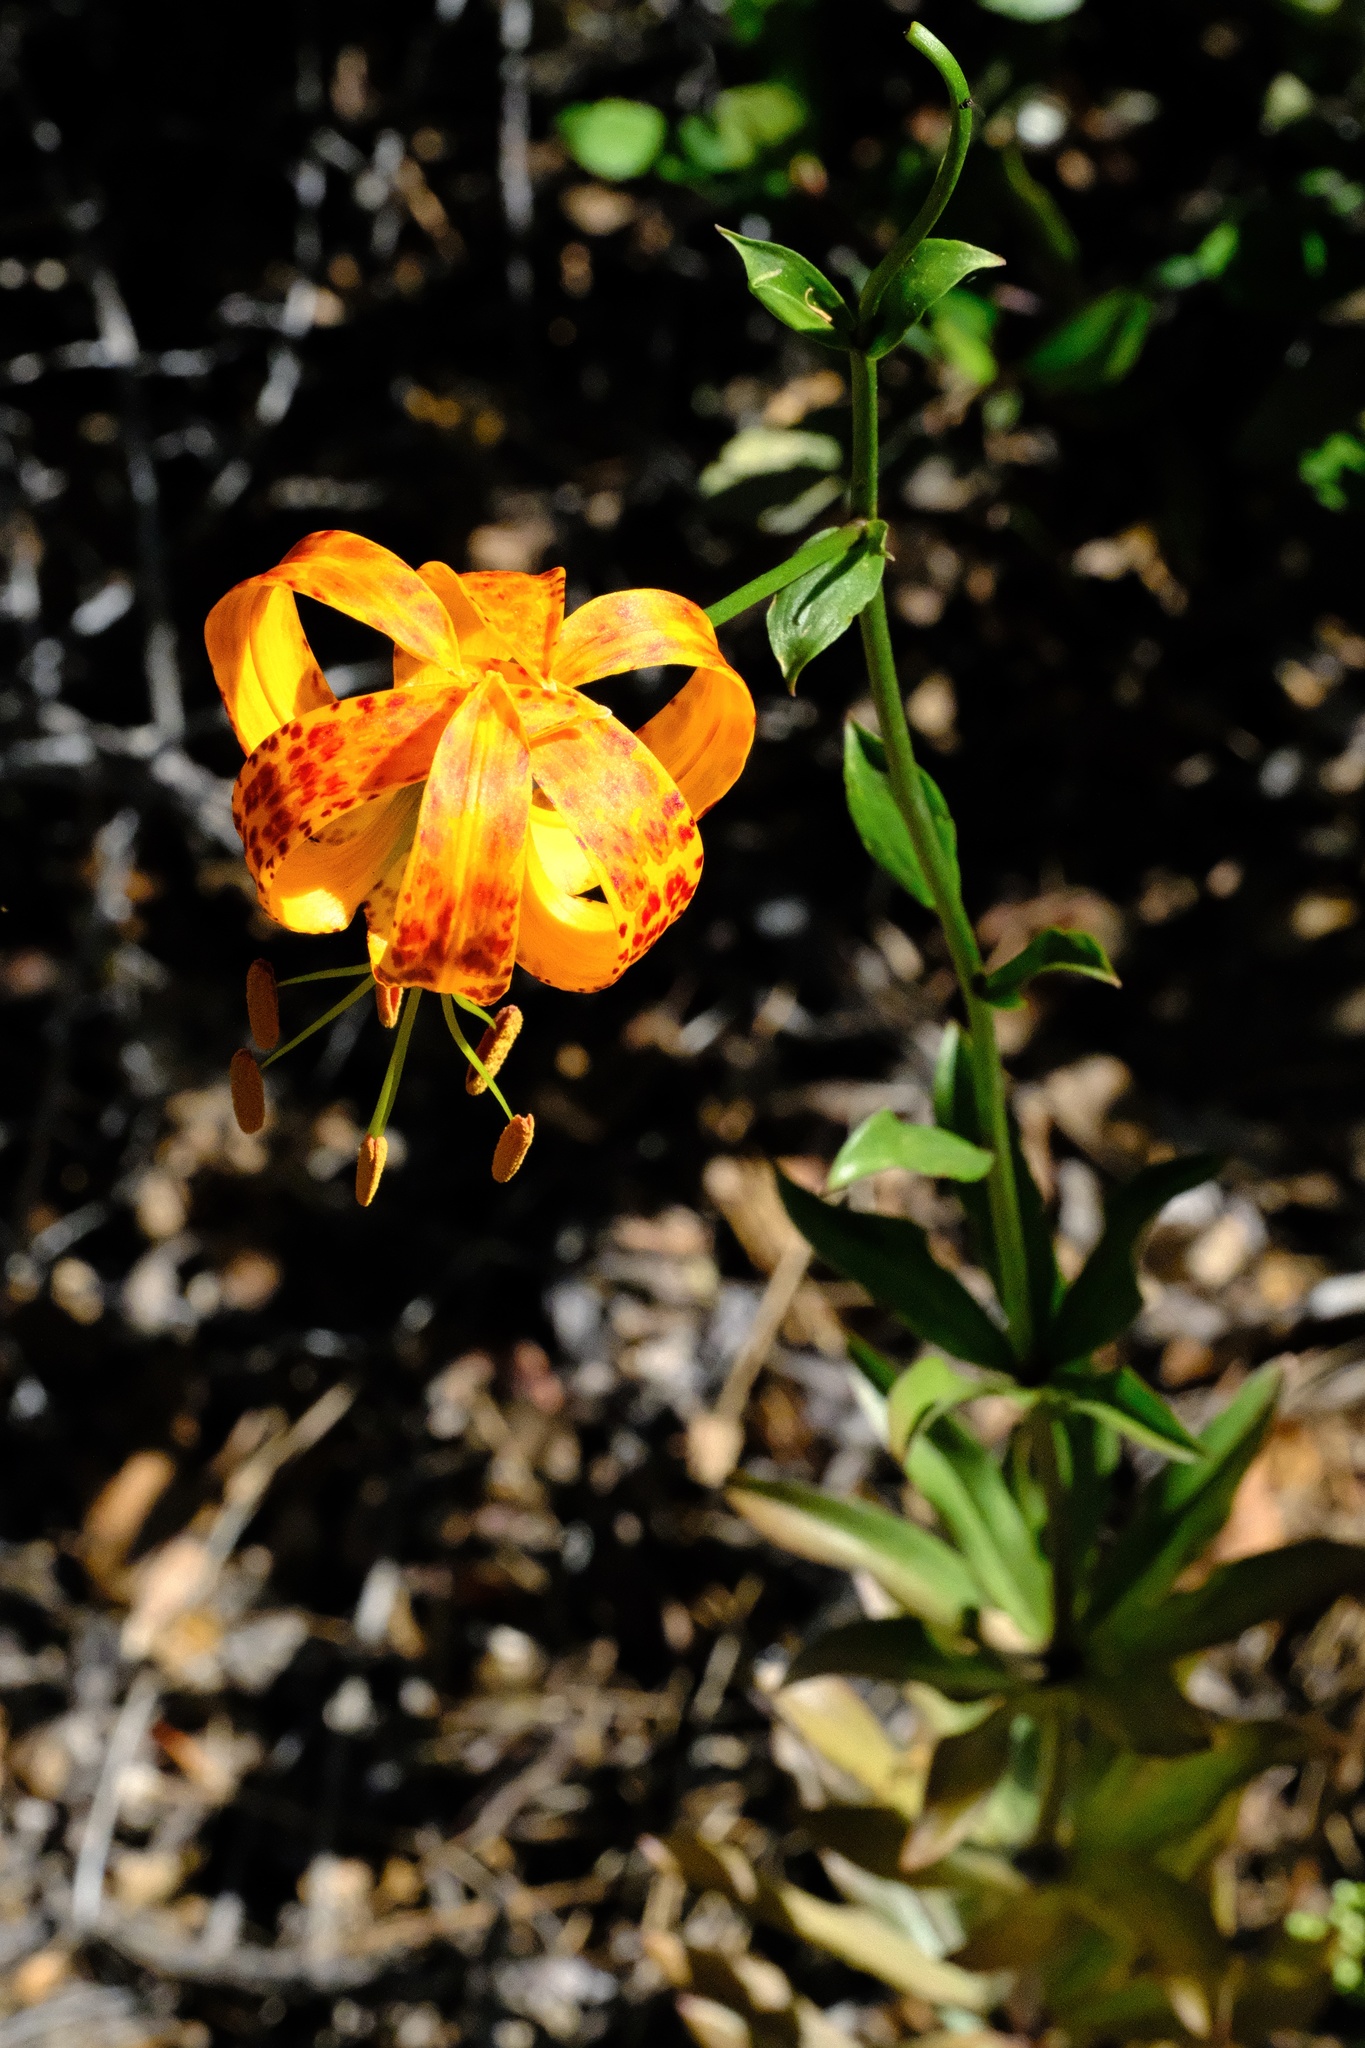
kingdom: Plantae
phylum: Tracheophyta
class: Liliopsida
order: Liliales
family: Liliaceae
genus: Lilium
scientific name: Lilium humboldtii
